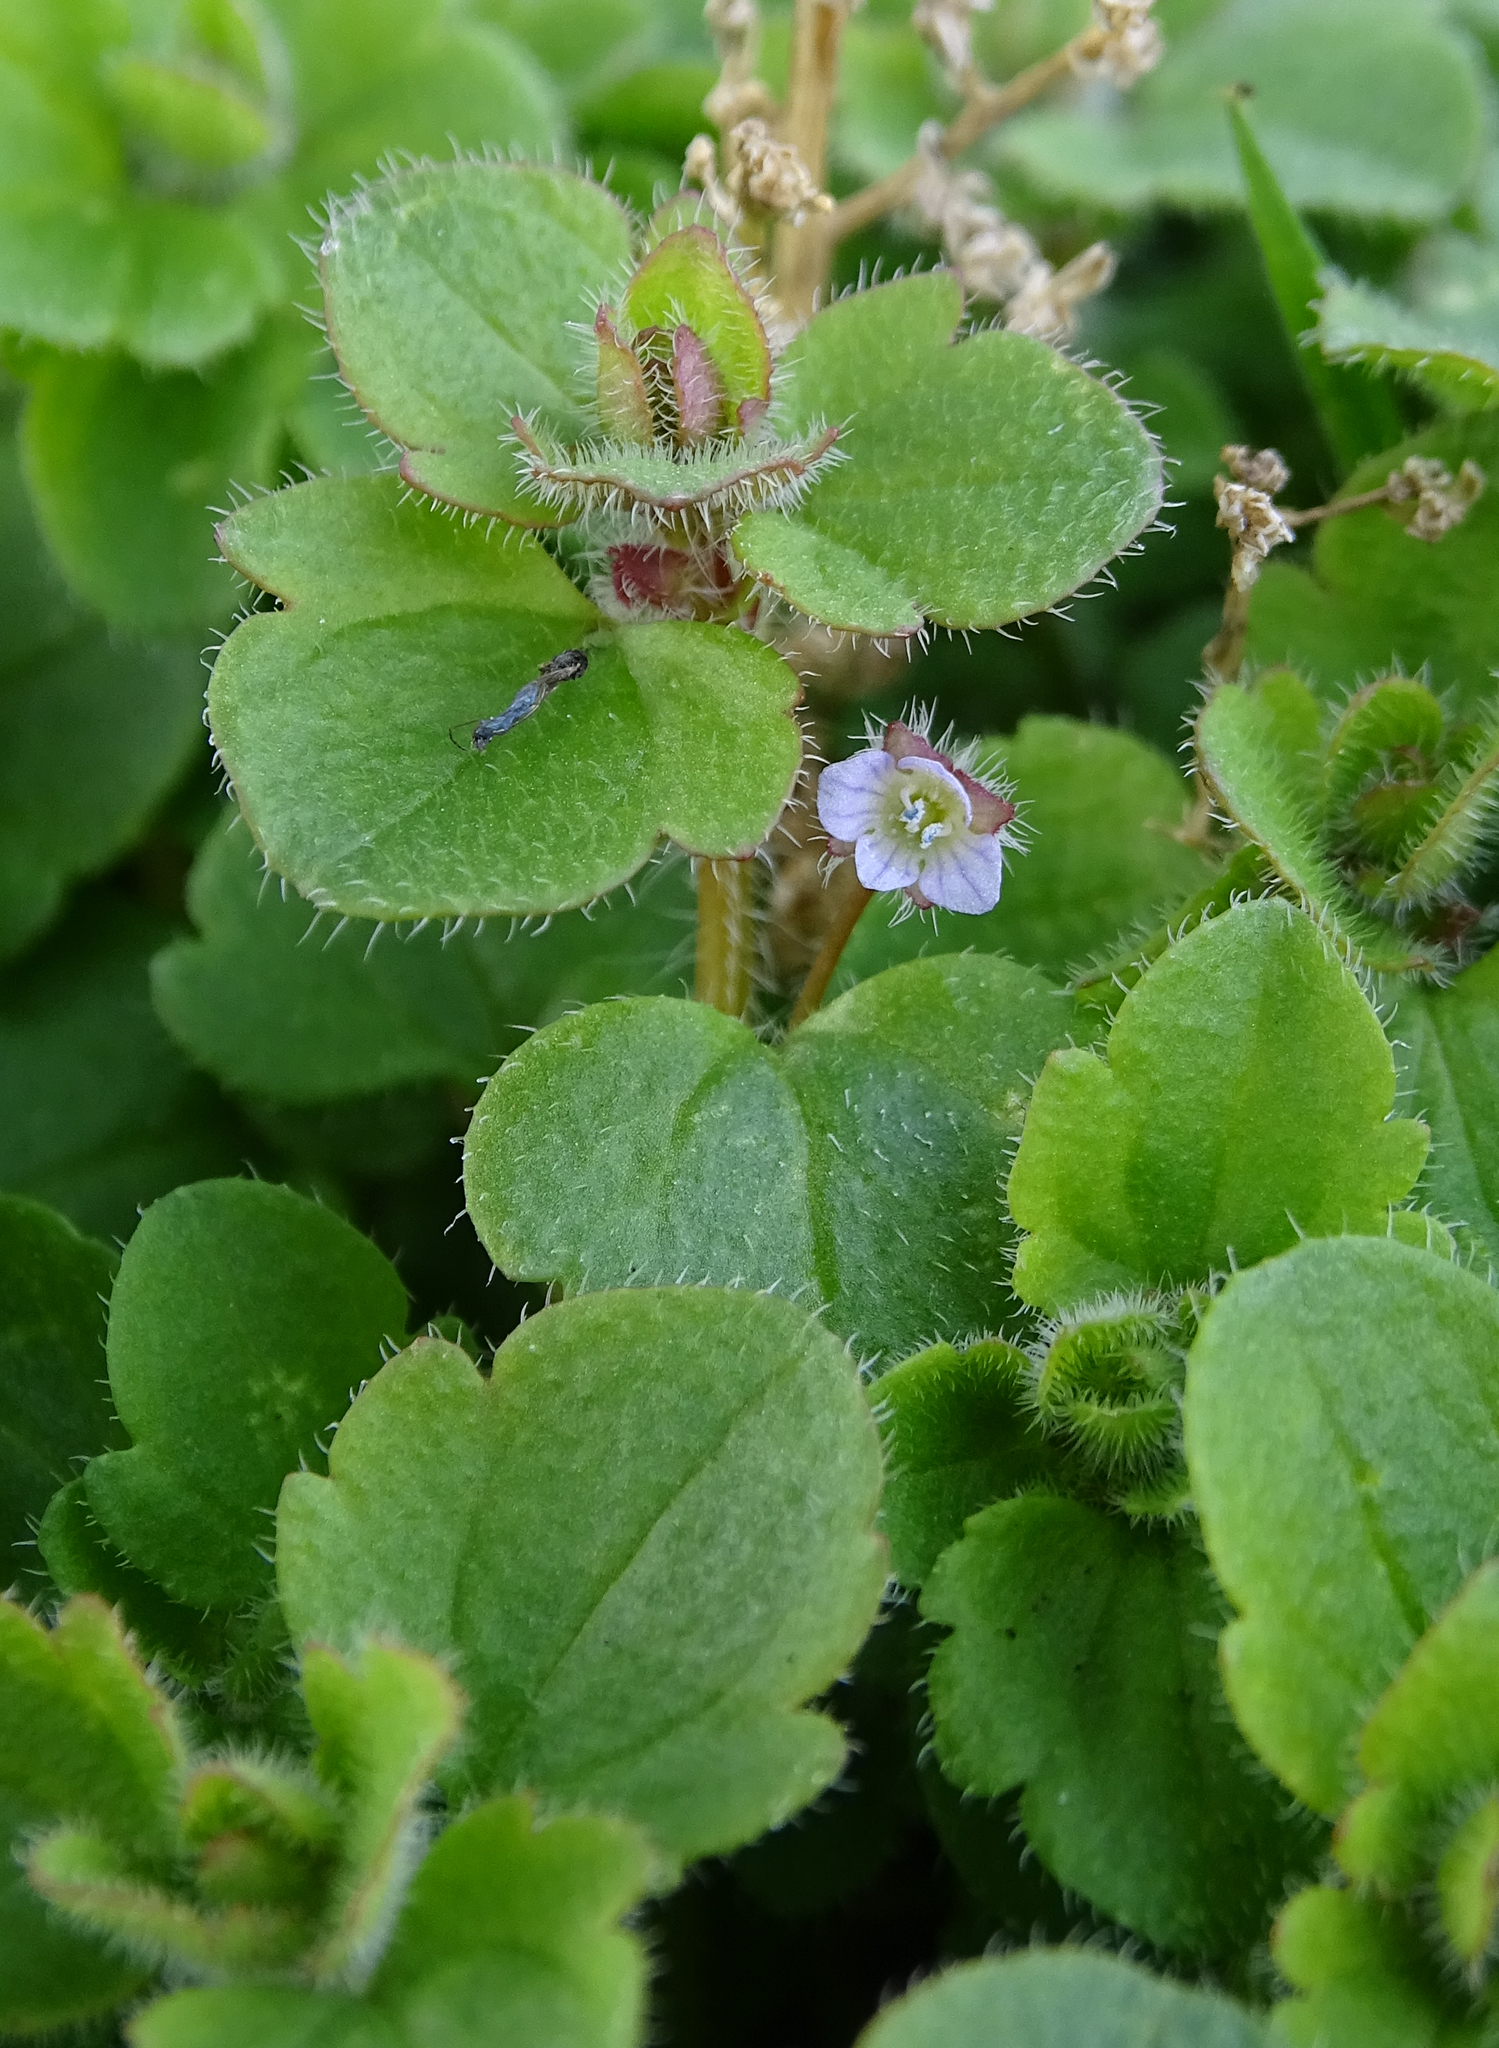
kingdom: Plantae
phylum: Tracheophyta
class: Magnoliopsida
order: Lamiales
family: Plantaginaceae
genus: Veronica
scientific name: Veronica sublobata
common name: False ivy-leaved speedwell
